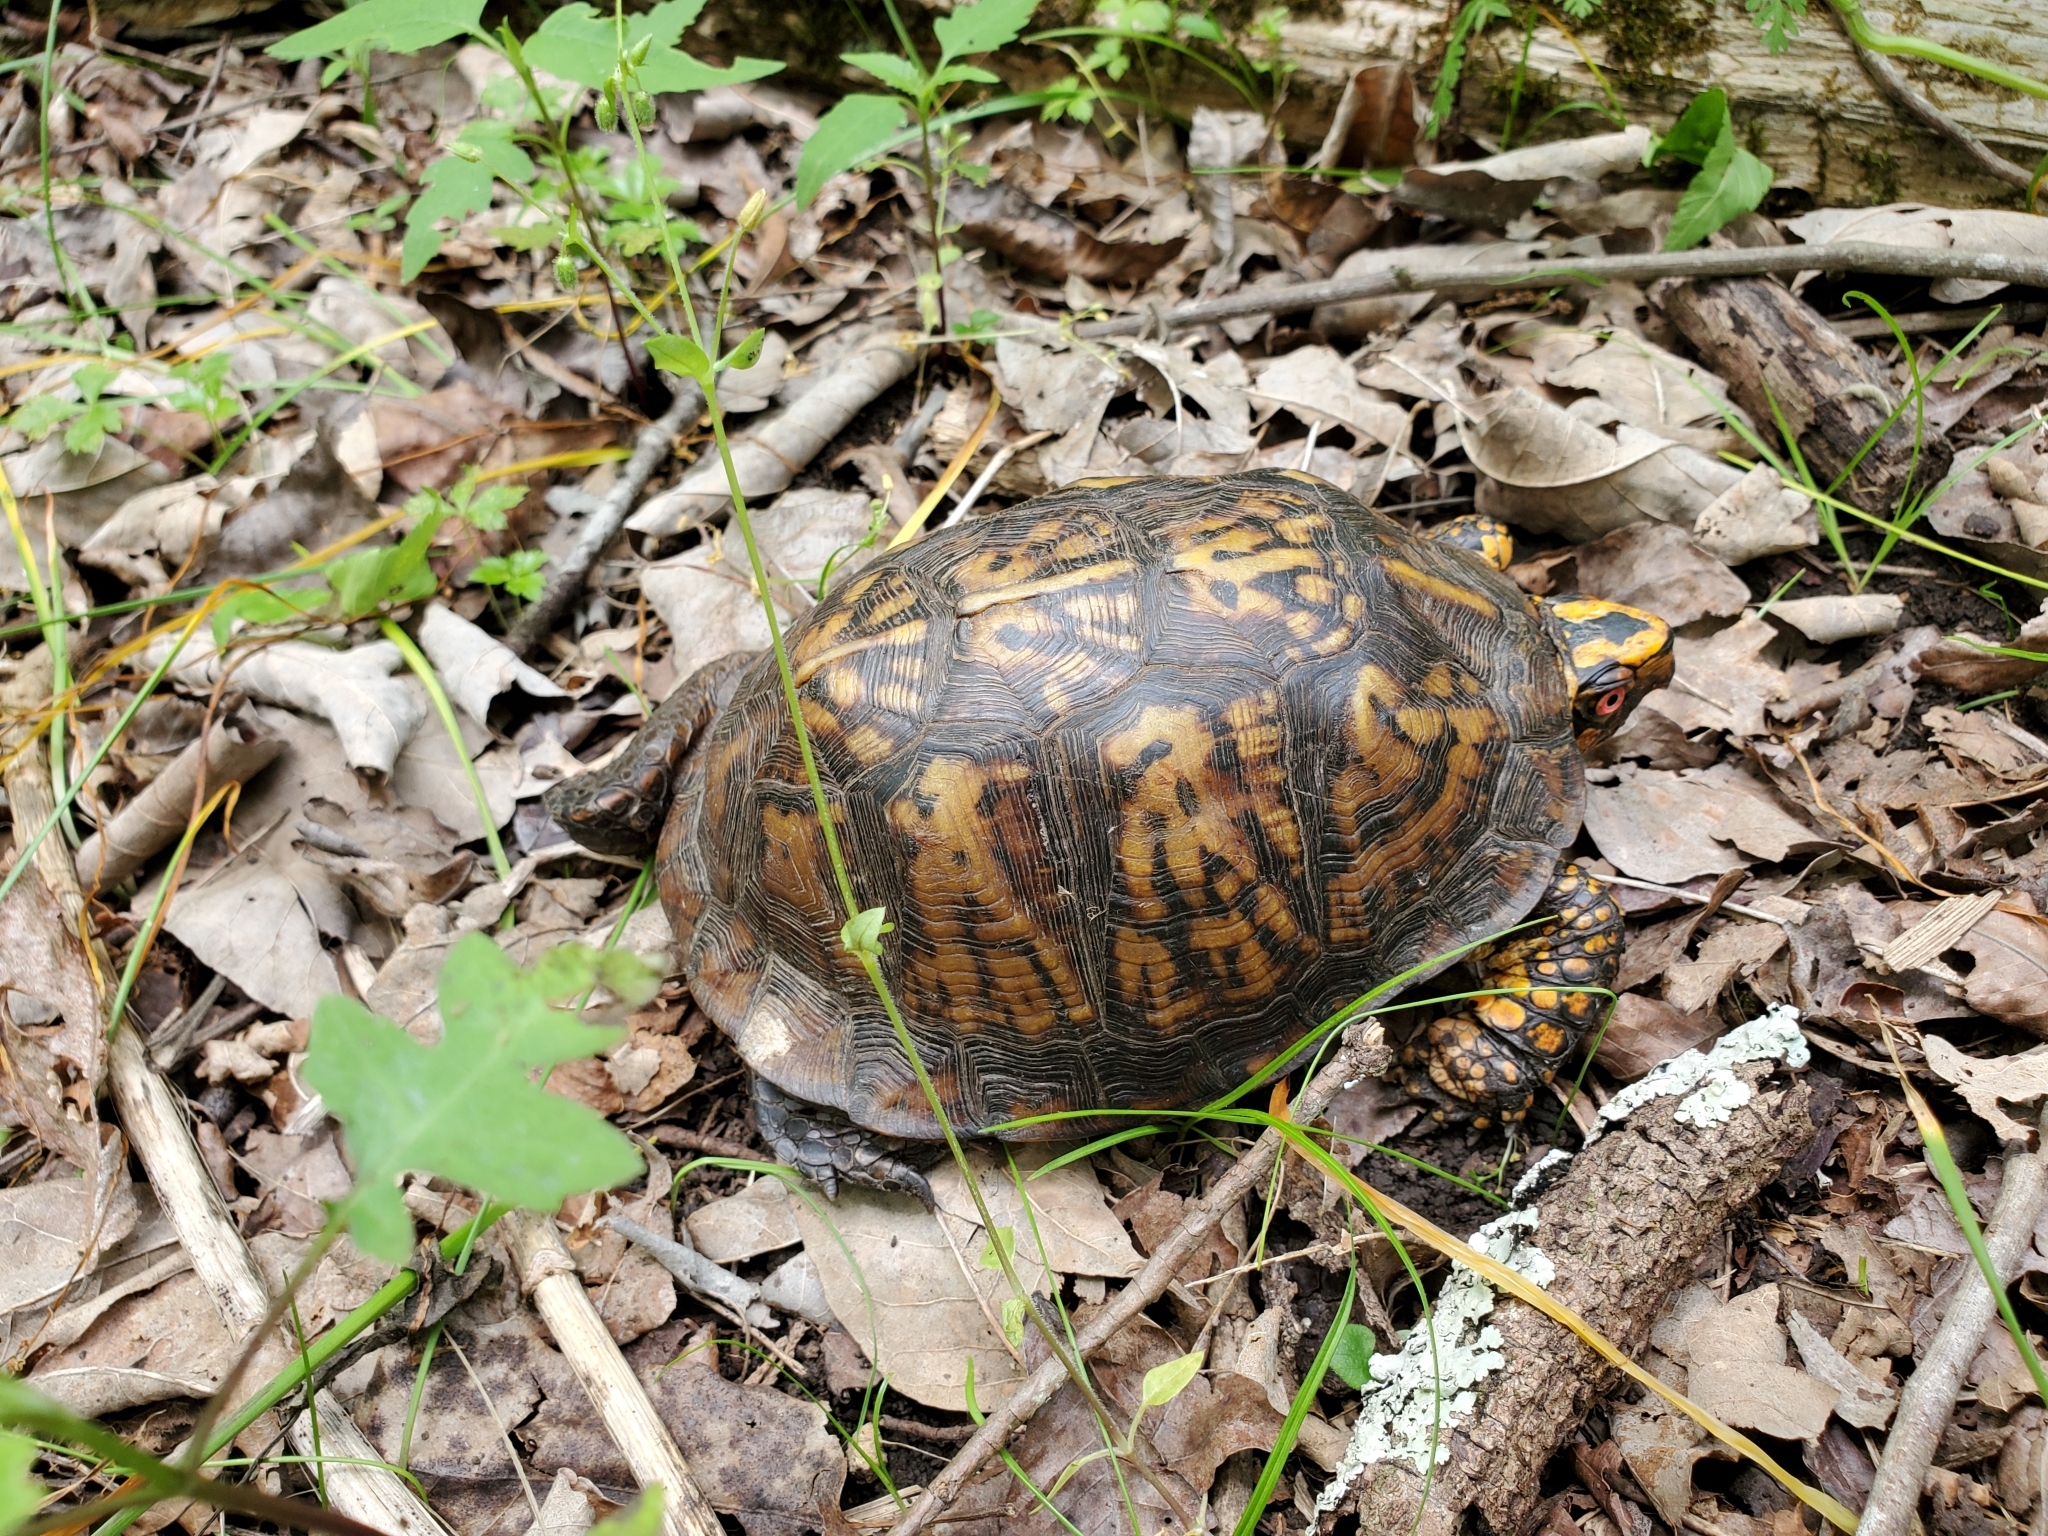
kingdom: Animalia
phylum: Chordata
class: Testudines
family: Emydidae
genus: Terrapene
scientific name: Terrapene carolina
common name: Common box turtle
